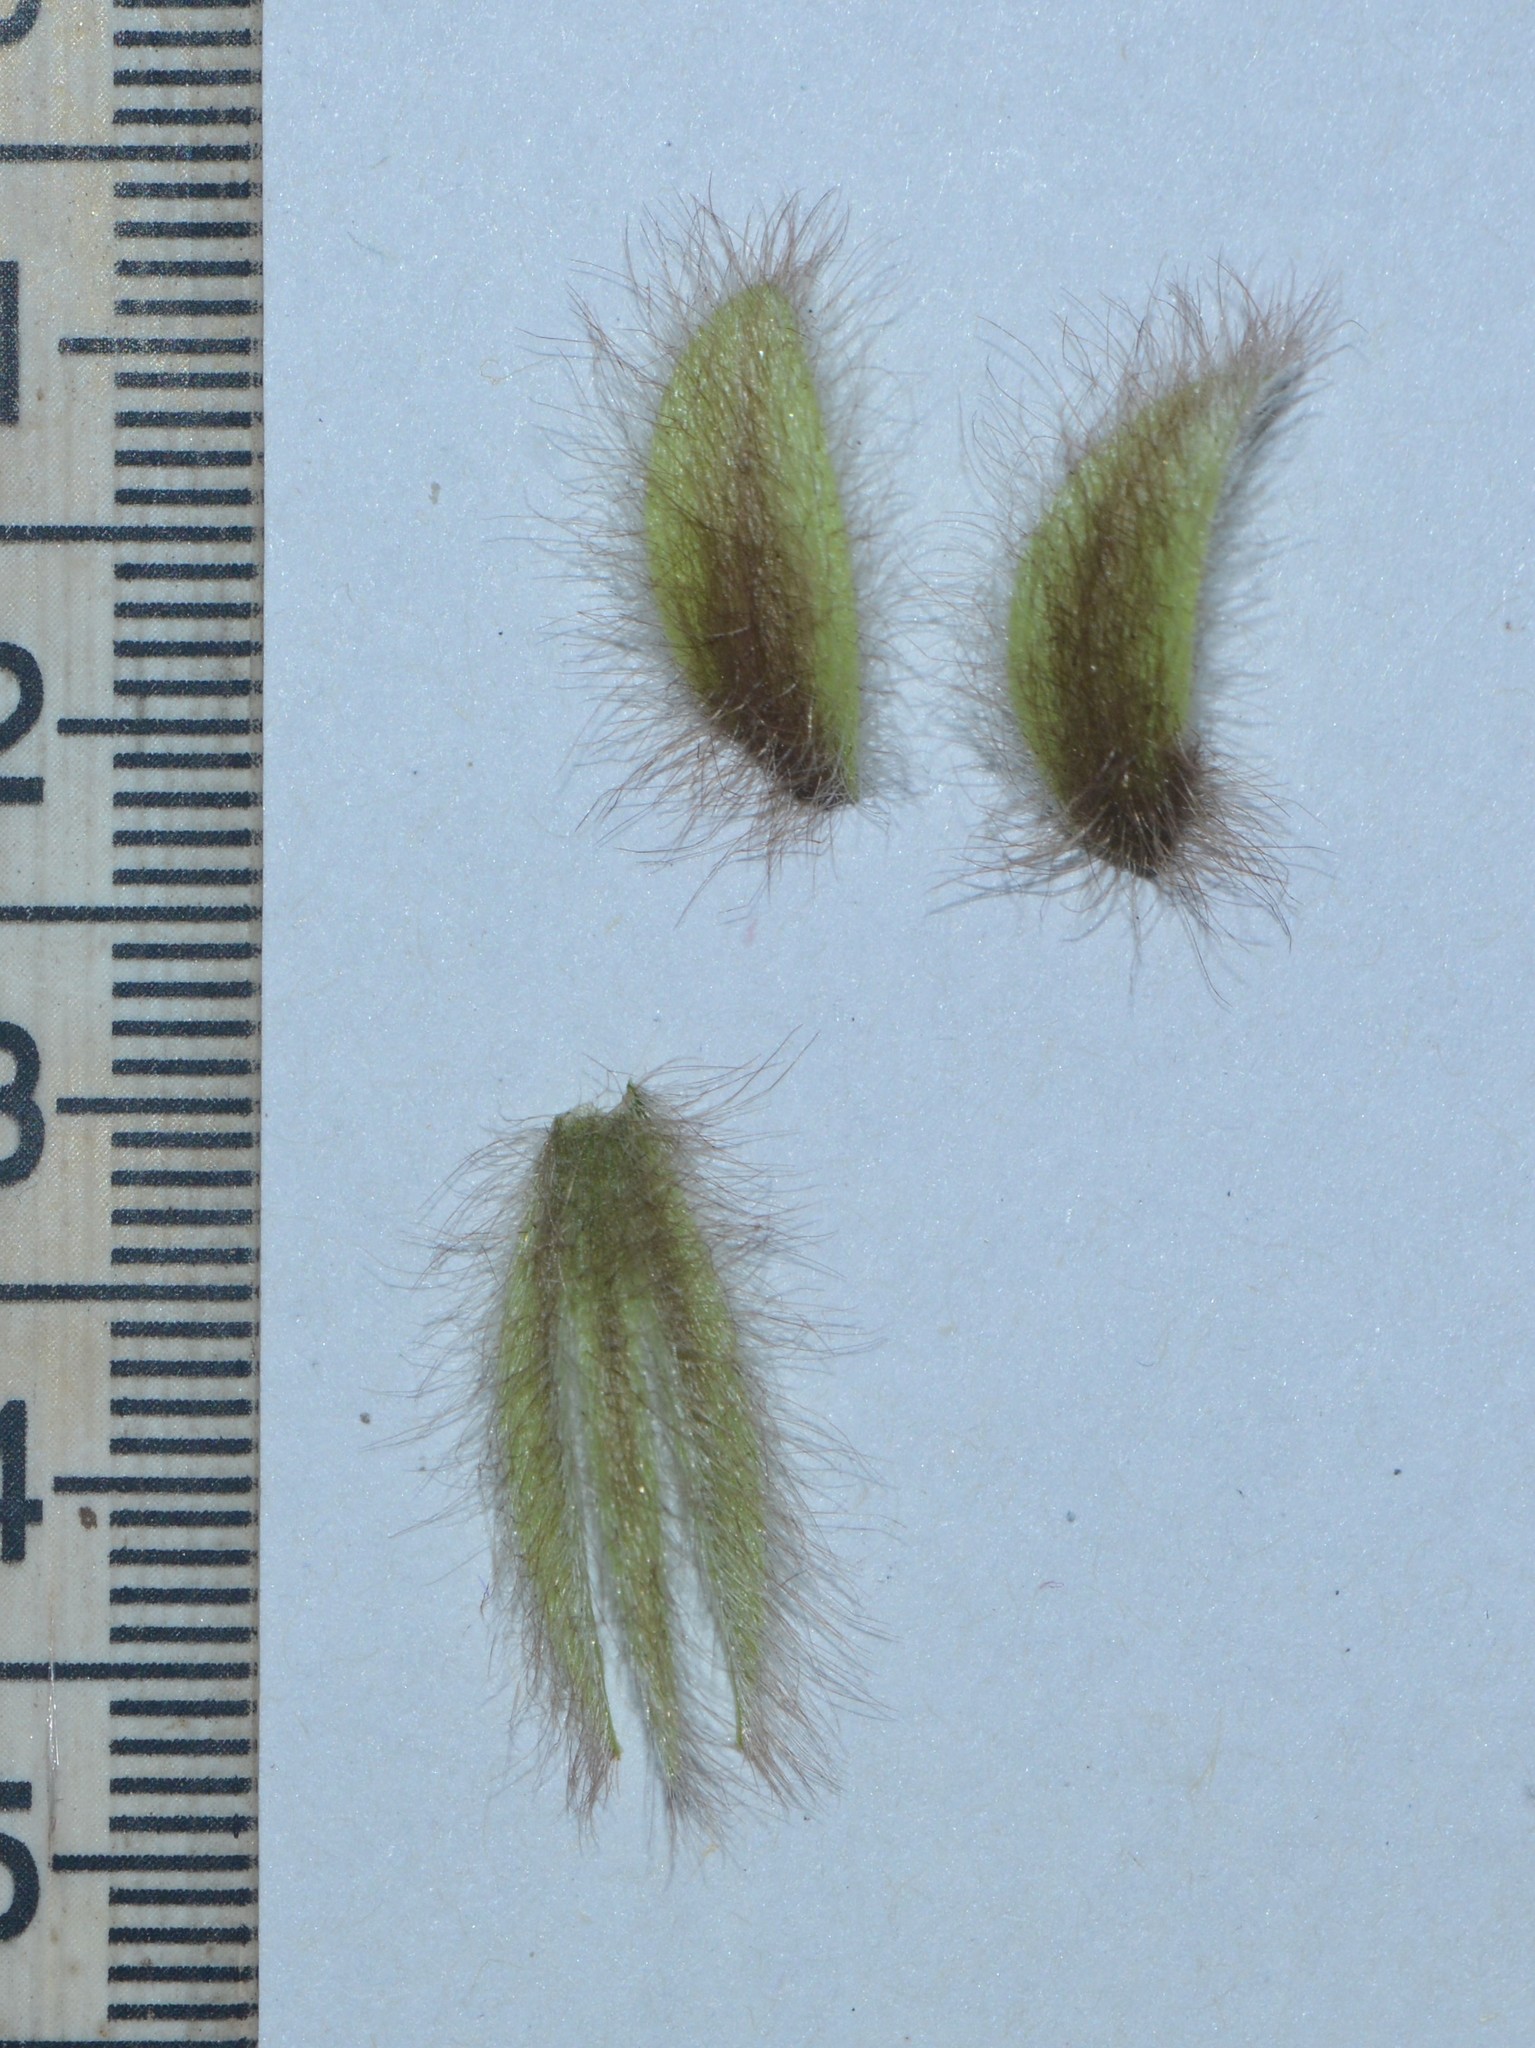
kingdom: Plantae
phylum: Tracheophyta
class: Magnoliopsida
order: Fabales
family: Fabaceae
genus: Crotalaria
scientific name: Crotalaria calycina
